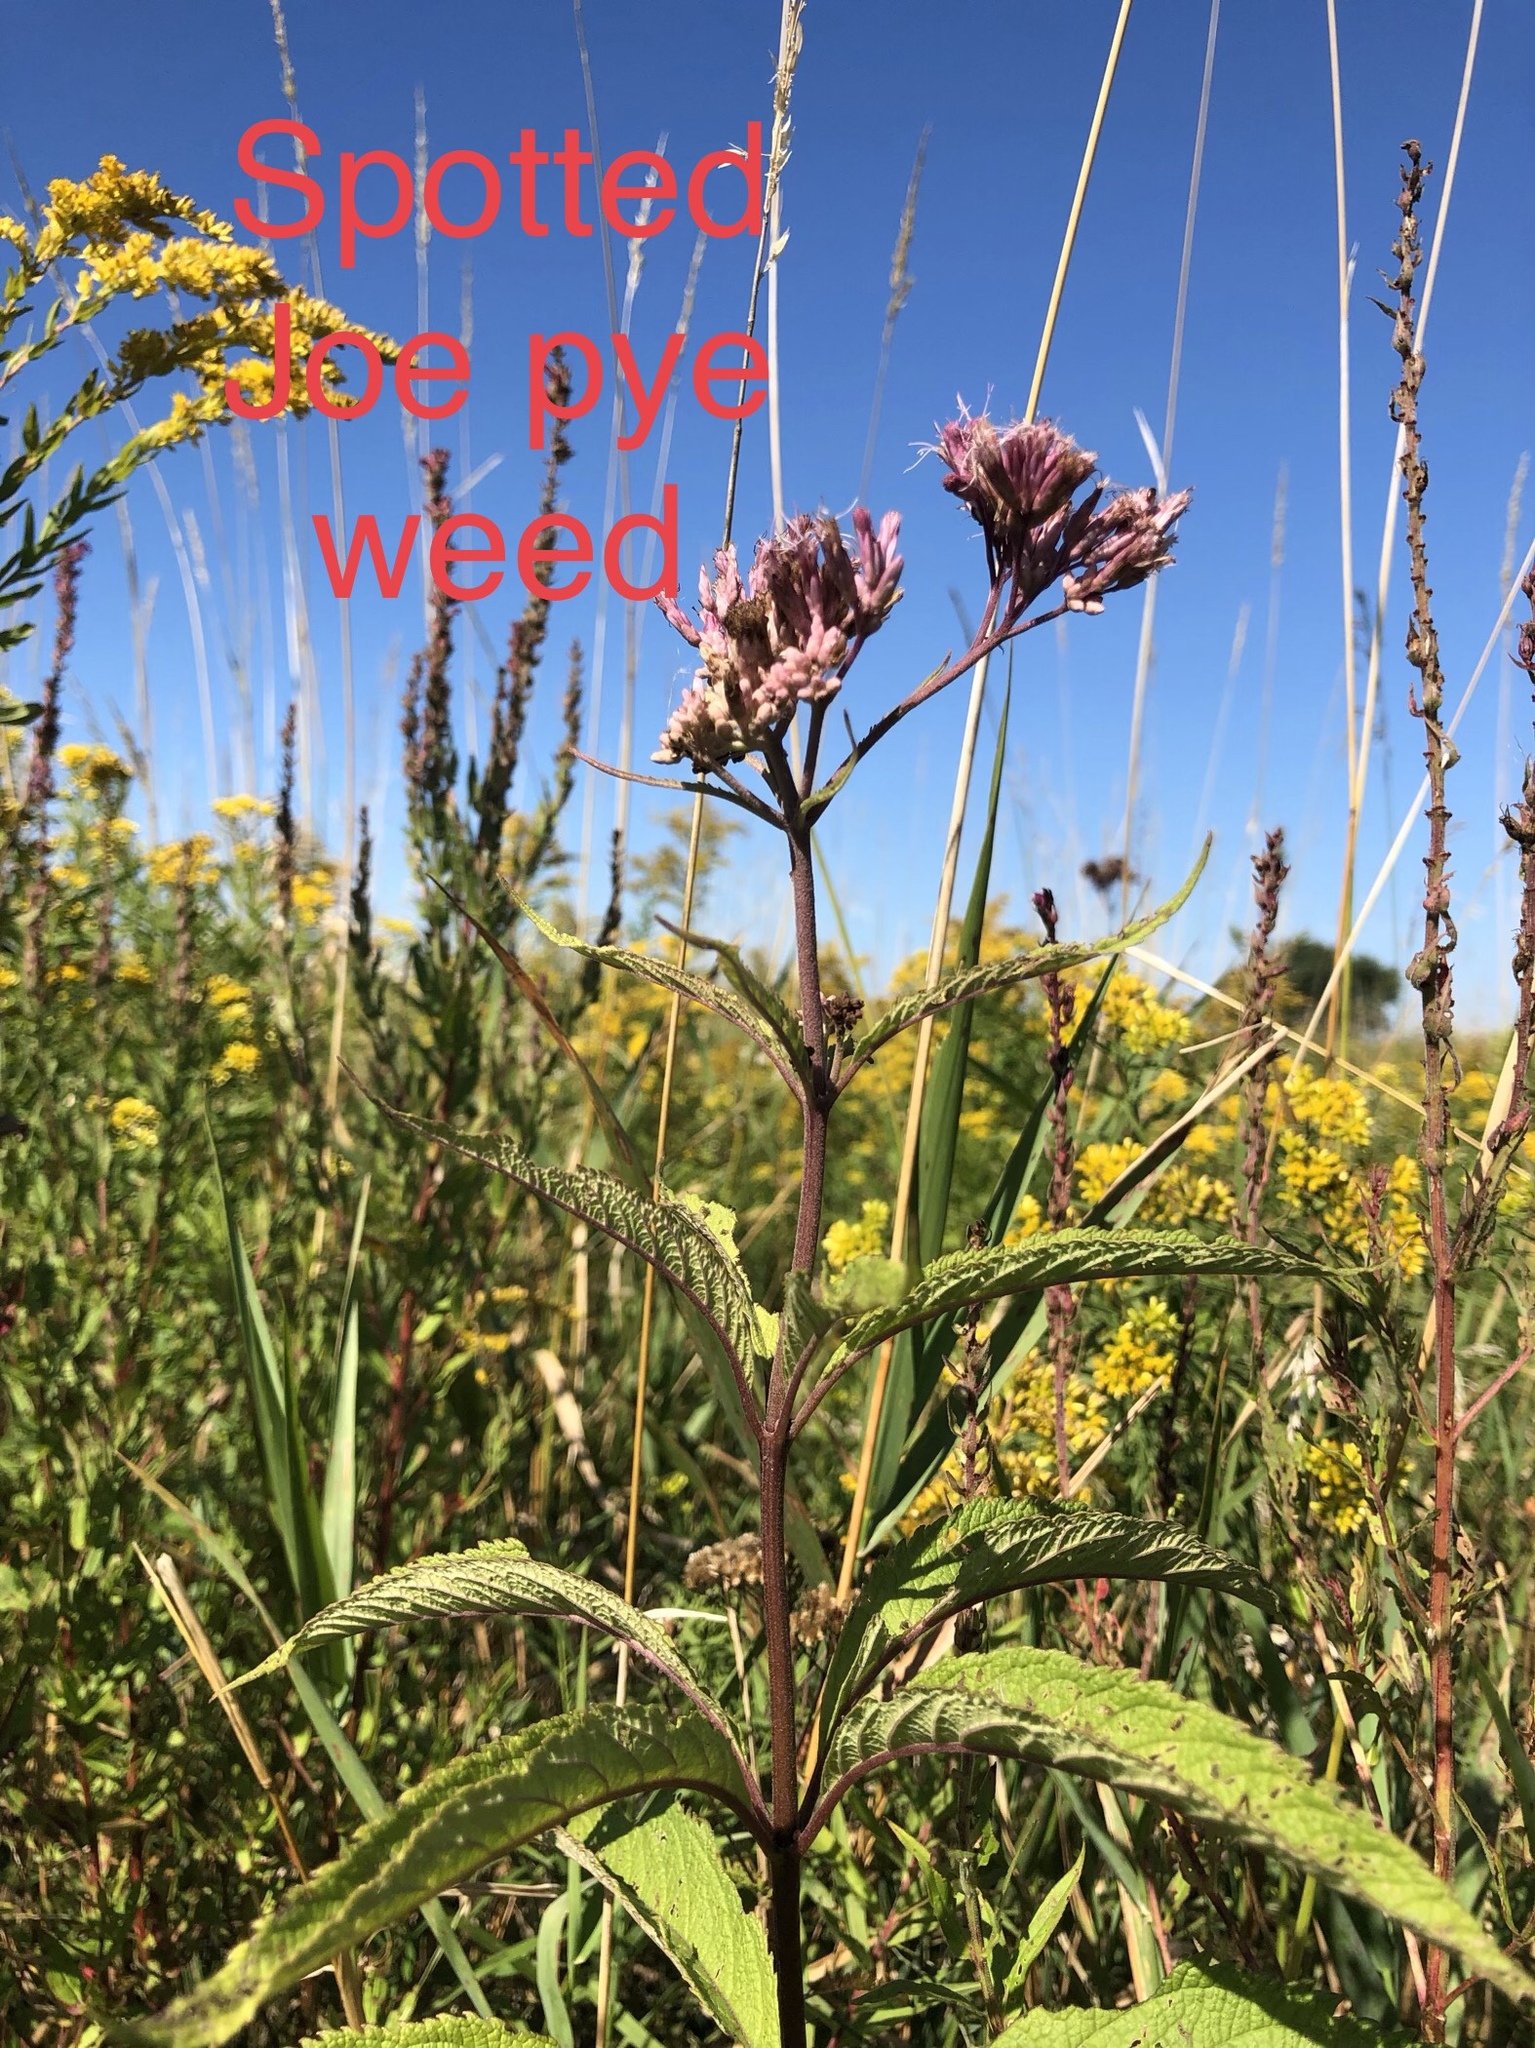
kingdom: Plantae
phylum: Tracheophyta
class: Magnoliopsida
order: Asterales
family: Asteraceae
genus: Eutrochium
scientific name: Eutrochium maculatum
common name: Spotted joe pye weed
